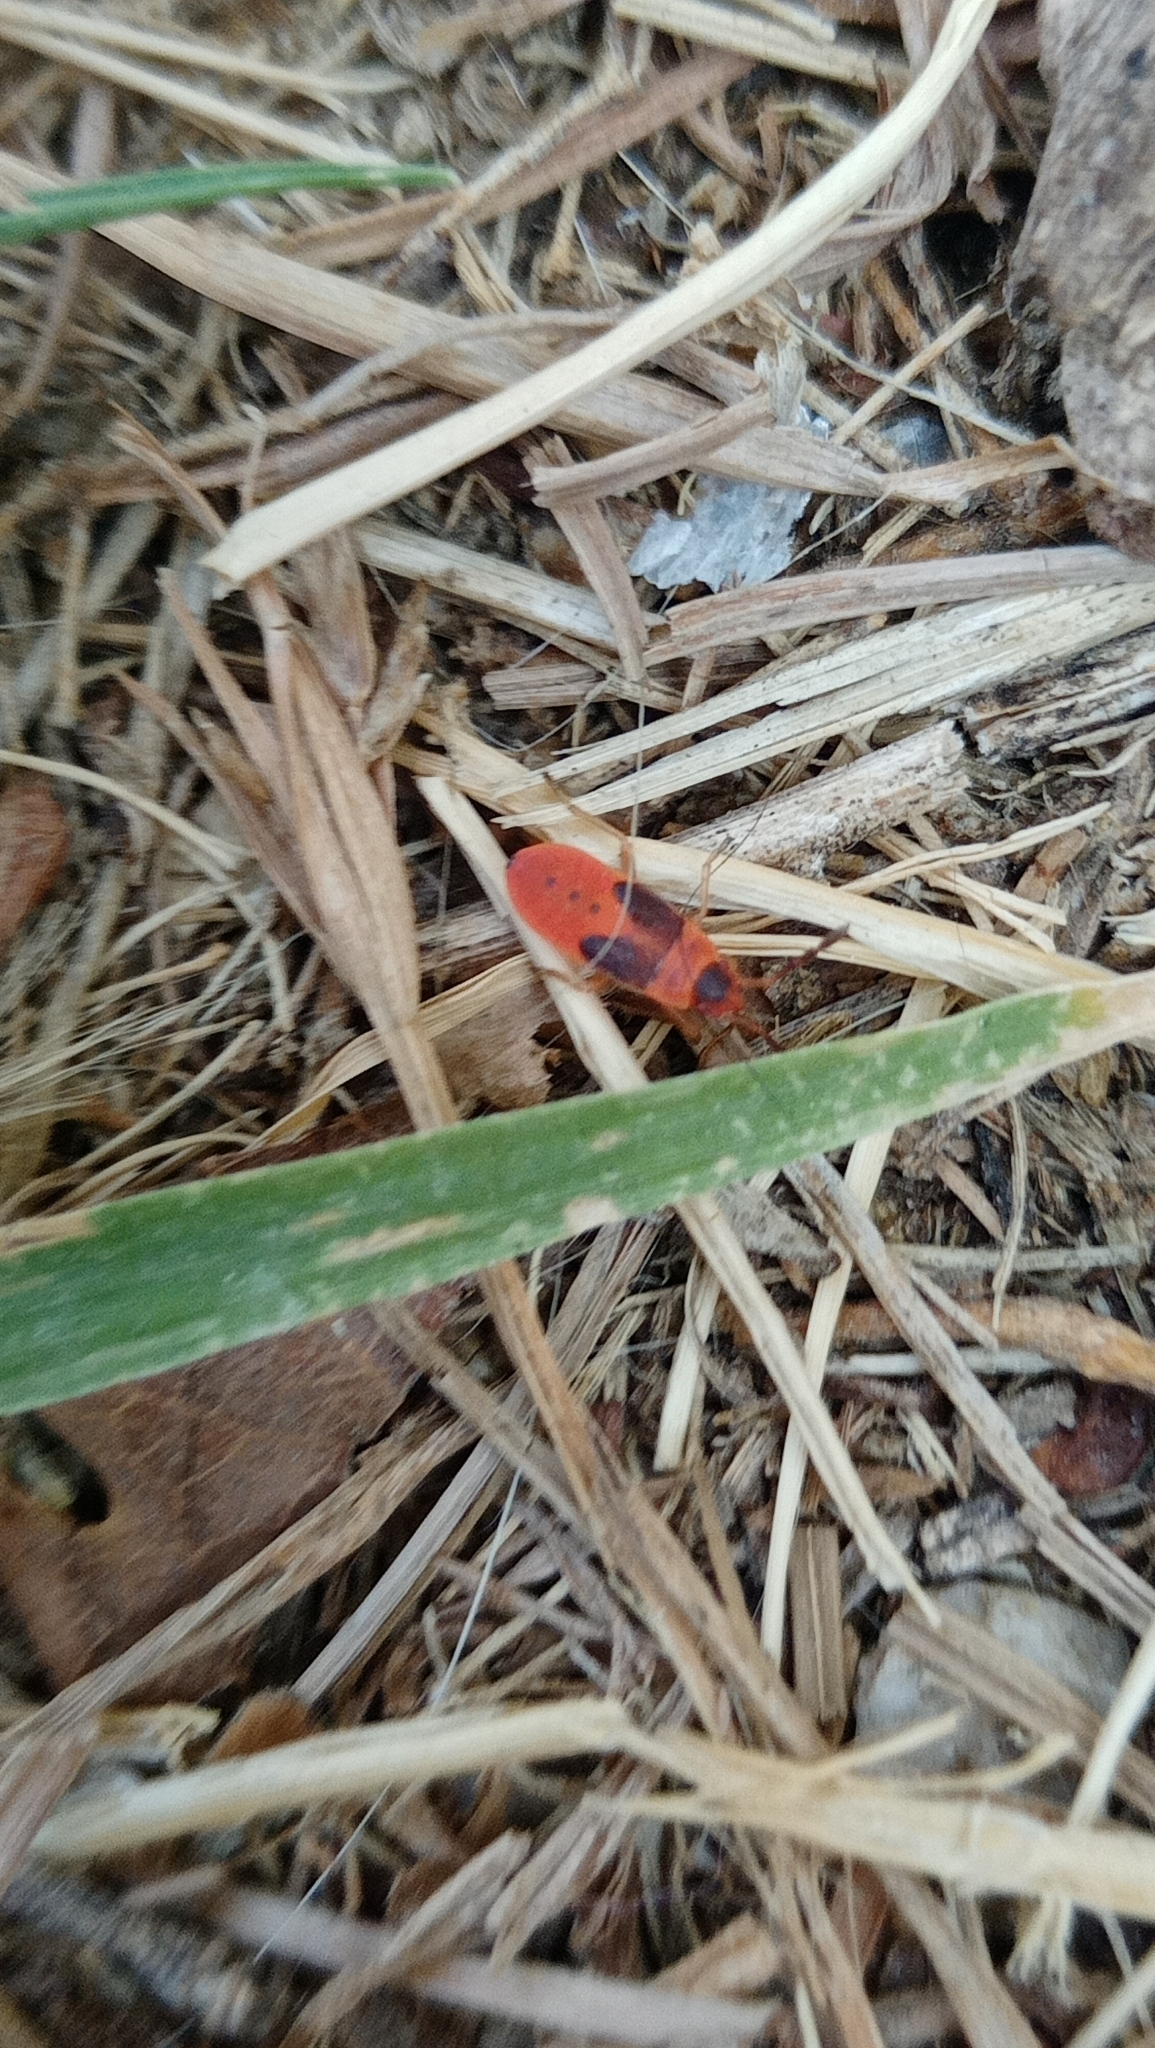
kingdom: Animalia
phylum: Arthropoda
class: Insecta
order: Hemiptera
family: Pyrrhocoridae
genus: Scantius
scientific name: Scantius aegyptius
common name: Red bug
